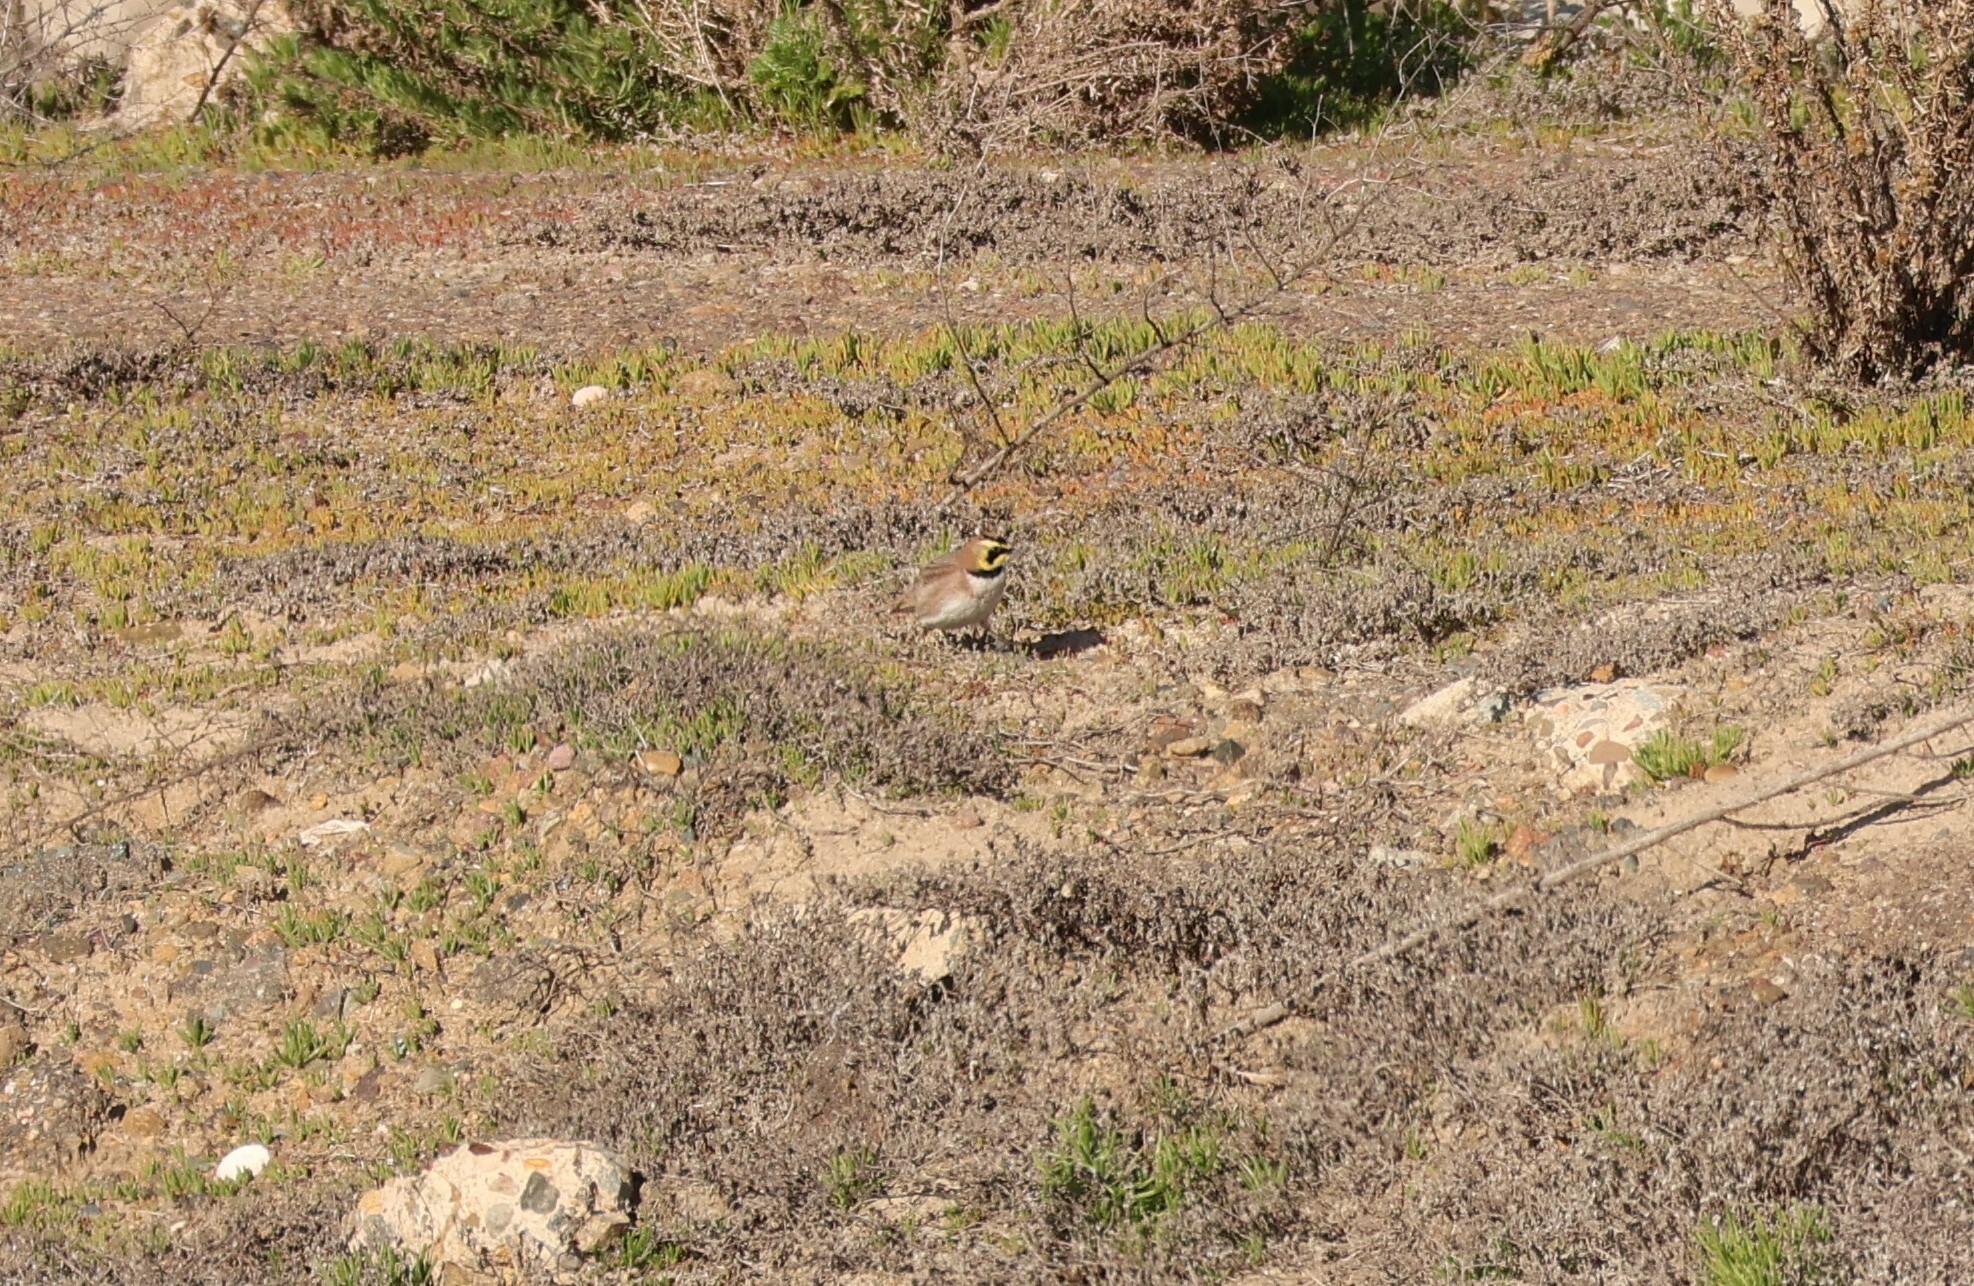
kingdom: Animalia
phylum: Chordata
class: Aves
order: Passeriformes
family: Alaudidae
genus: Eremophila
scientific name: Eremophila alpestris
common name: Horned lark
